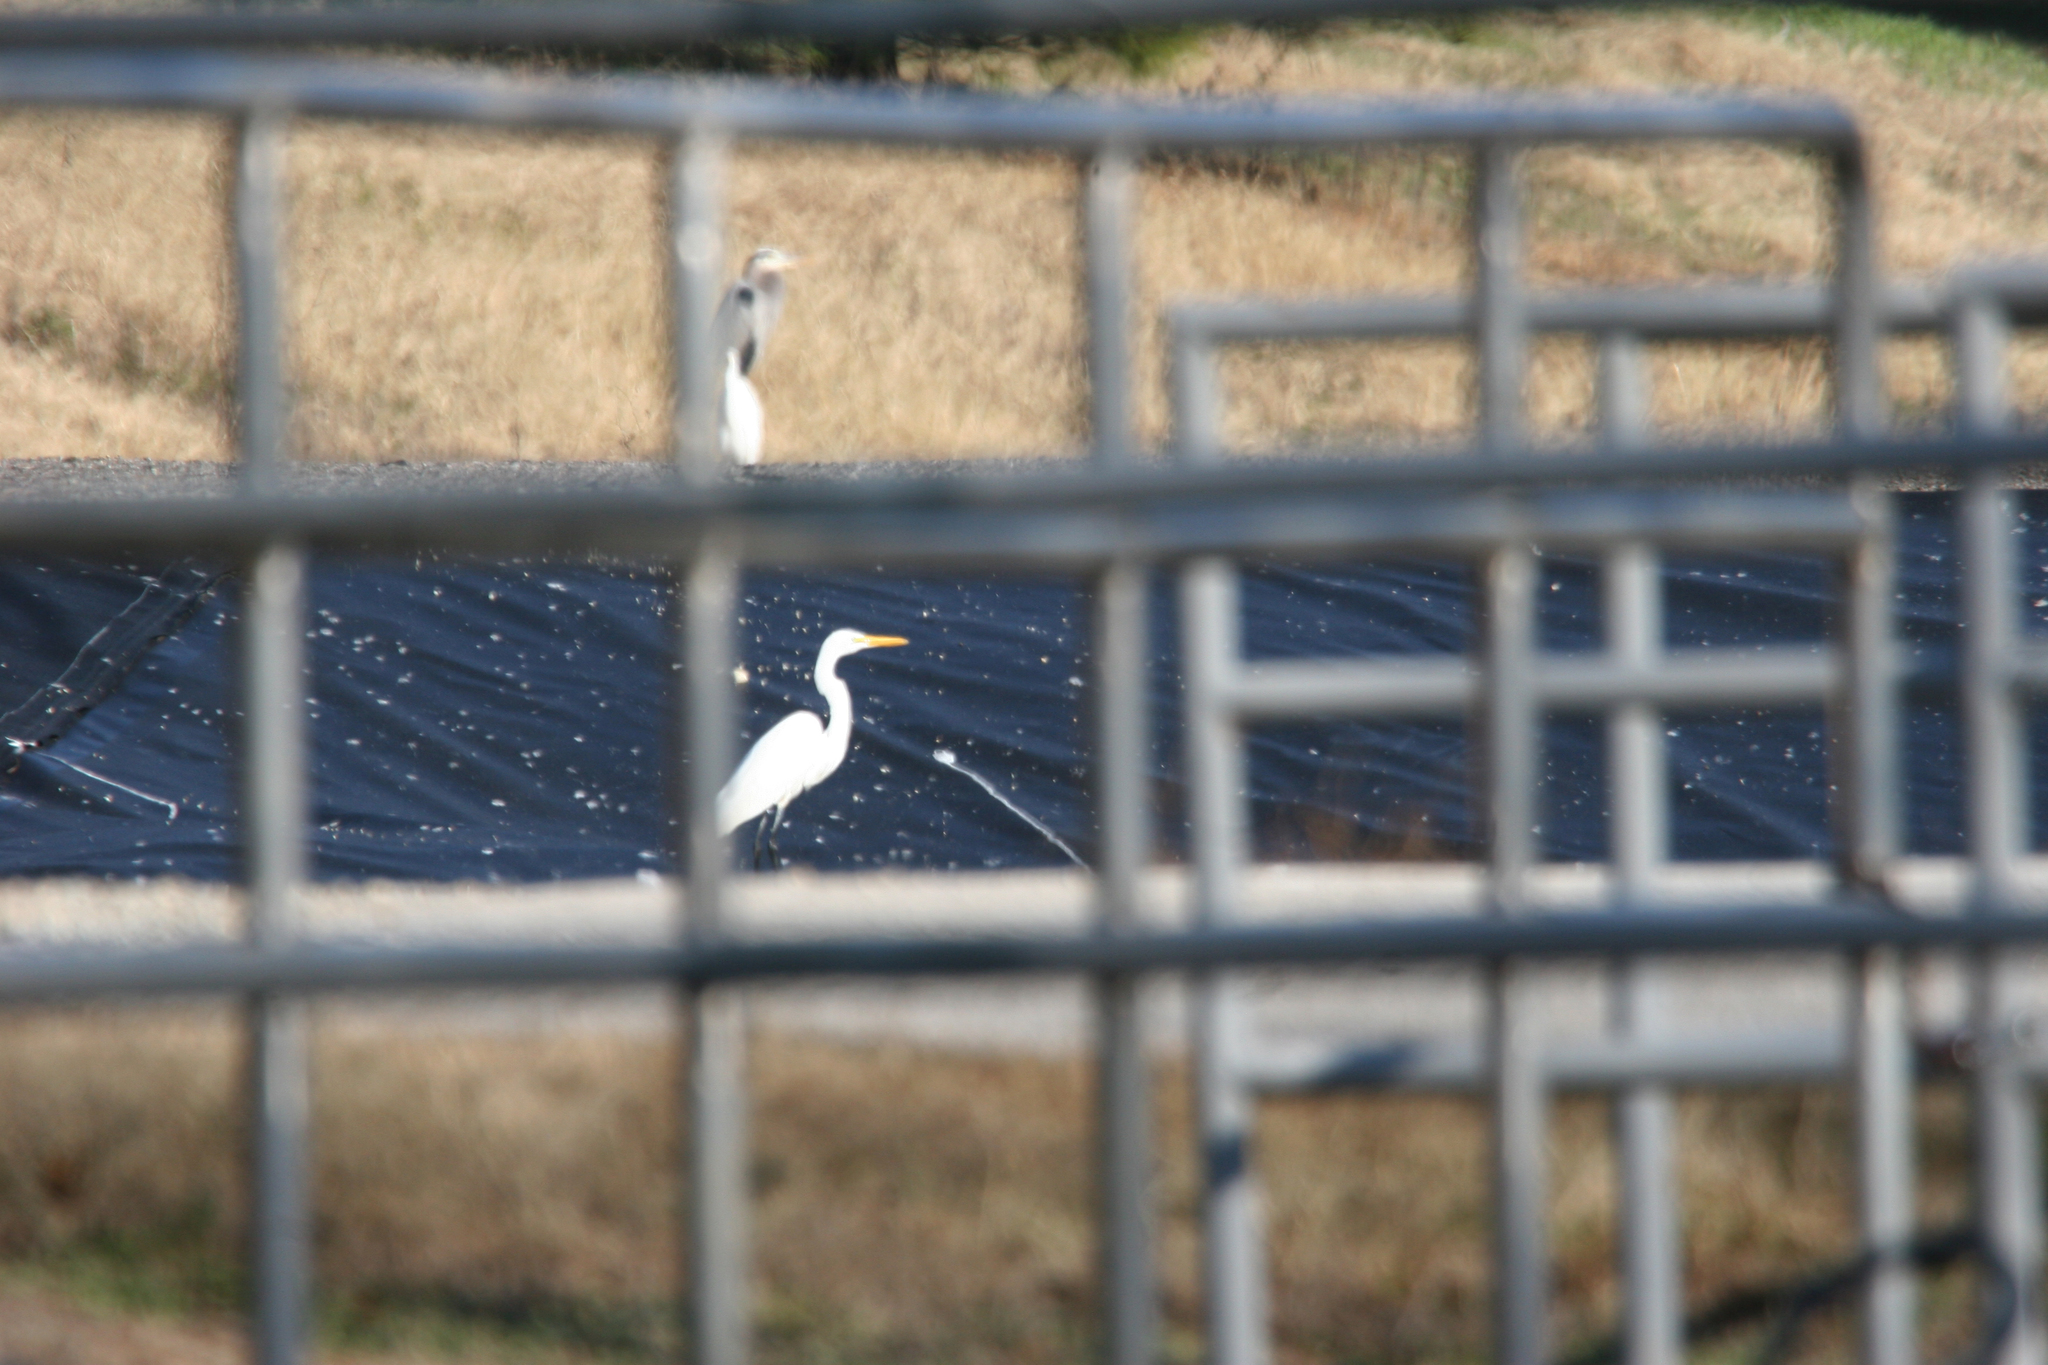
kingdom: Animalia
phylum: Chordata
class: Aves
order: Pelecaniformes
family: Ardeidae
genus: Ardea
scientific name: Ardea alba
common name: Great egret
